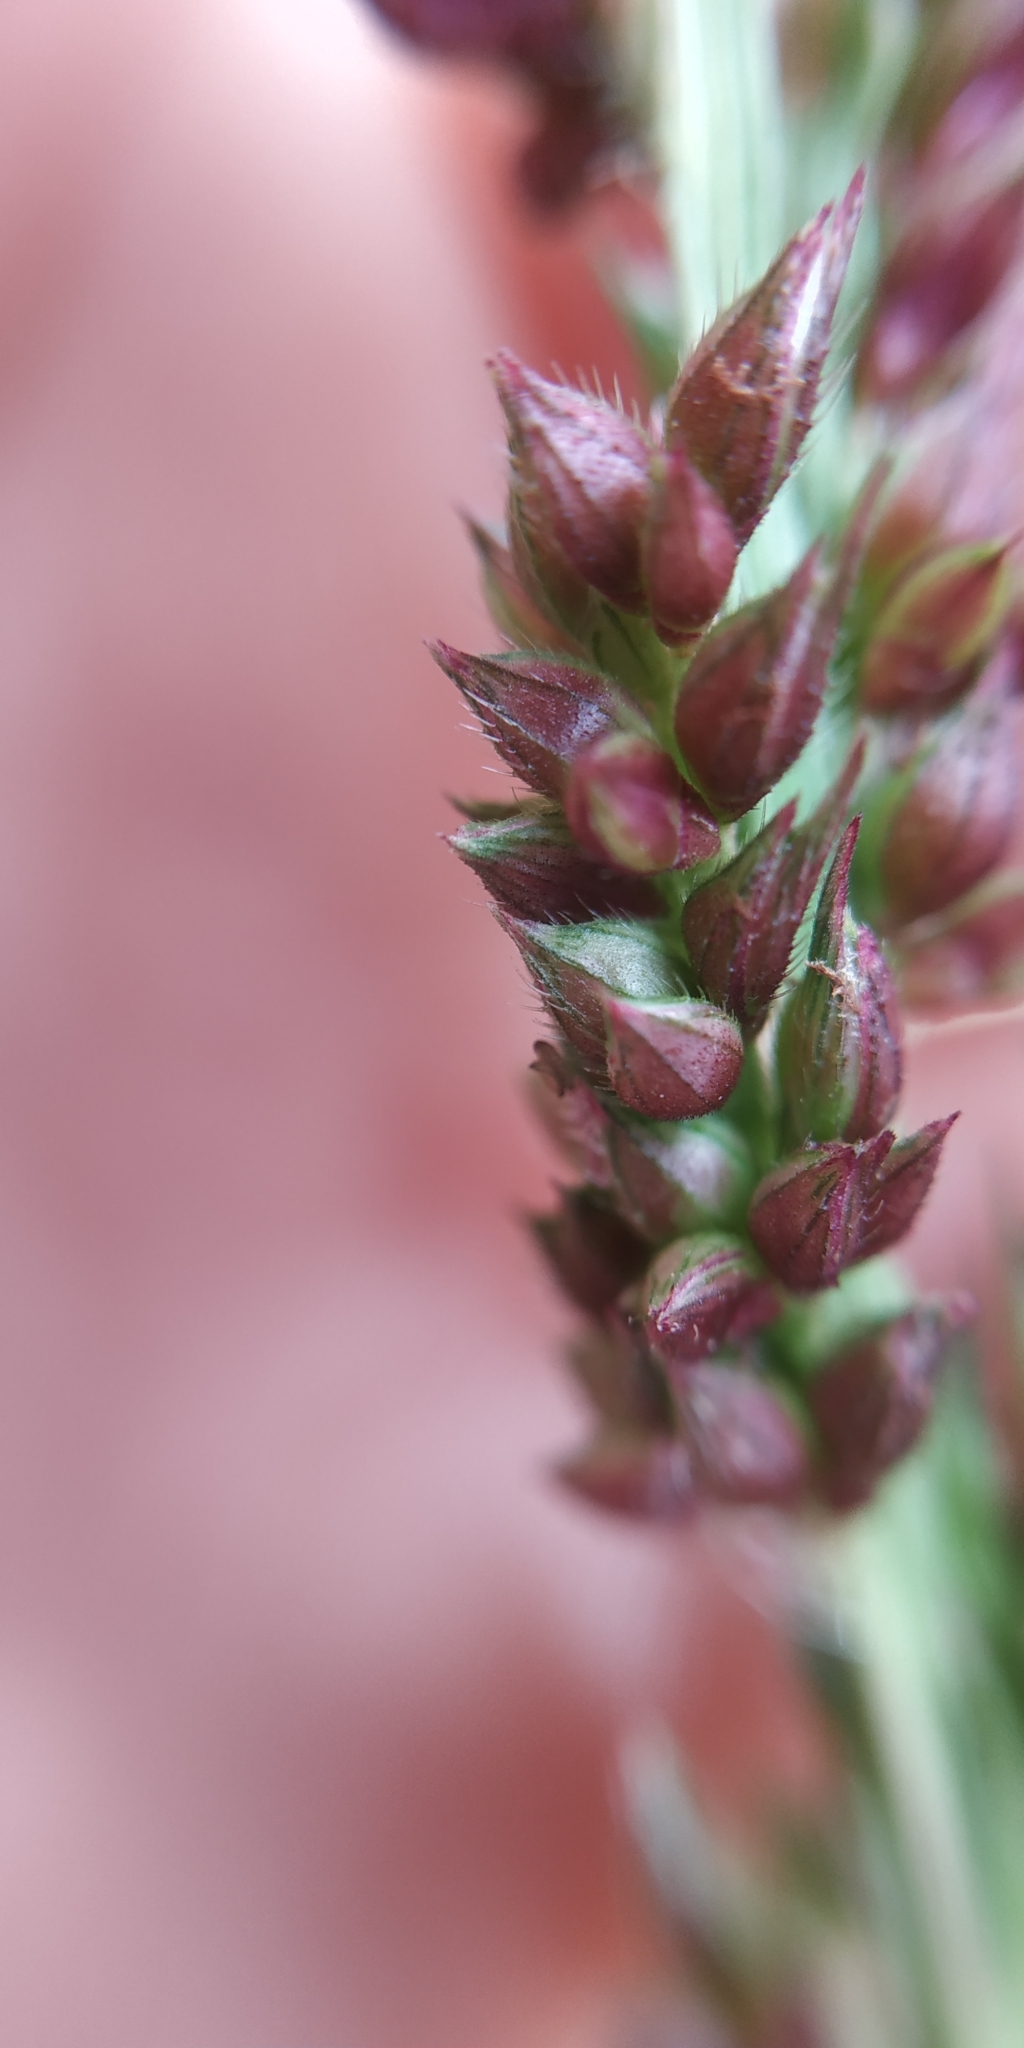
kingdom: Plantae
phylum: Tracheophyta
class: Liliopsida
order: Poales
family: Poaceae
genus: Echinochloa
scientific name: Echinochloa crus-galli
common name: Cockspur
